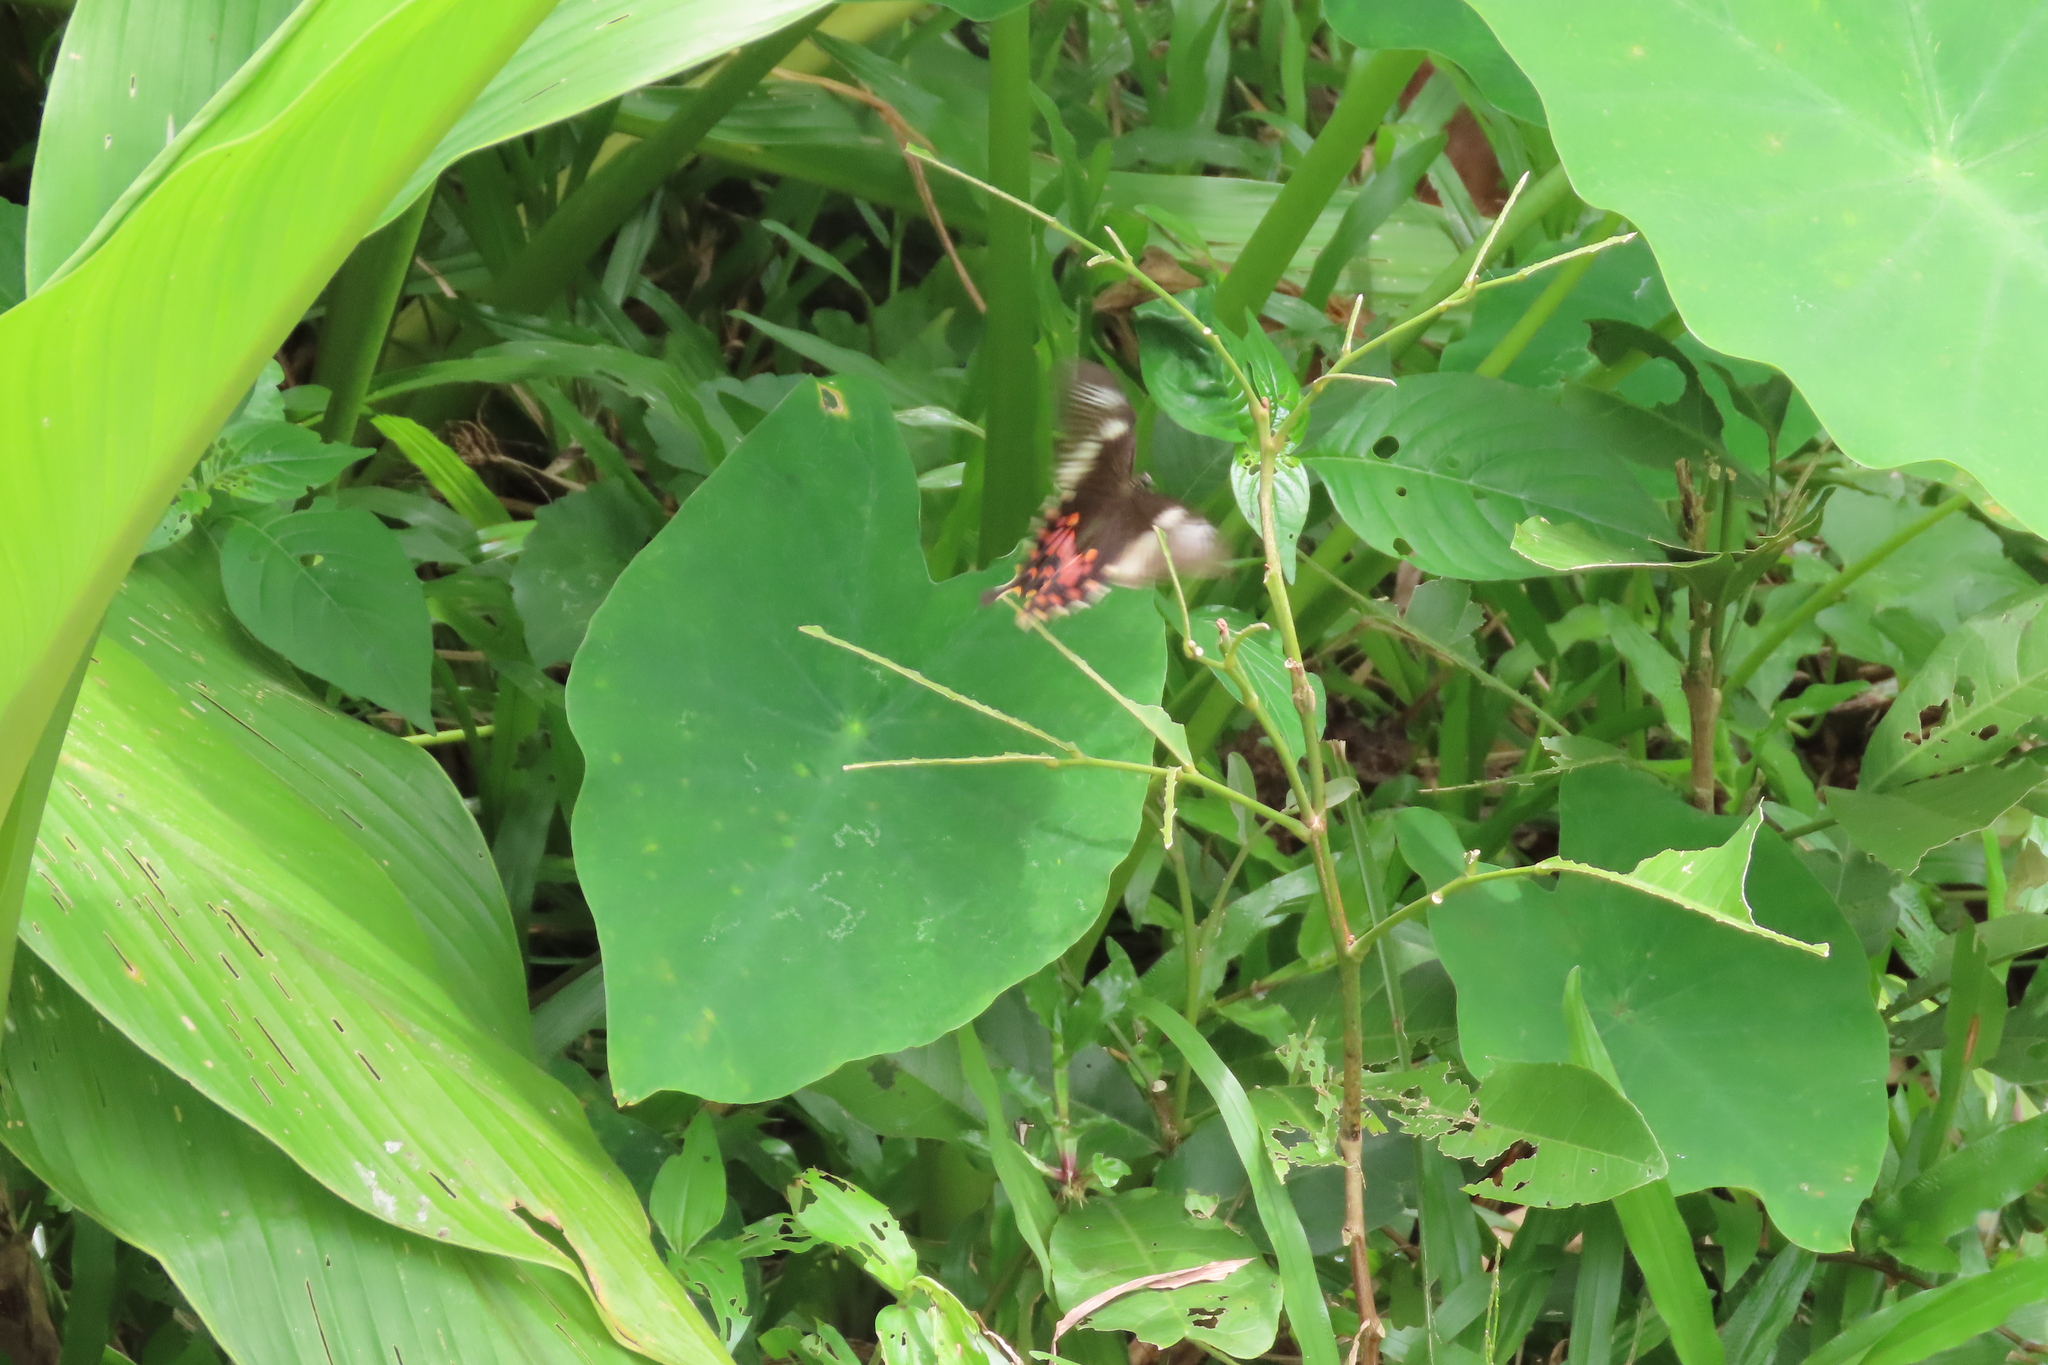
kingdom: Animalia
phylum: Arthropoda
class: Insecta
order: Lepidoptera
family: Papilionidae
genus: Papilio
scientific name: Papilio polytes
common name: Common mormon
